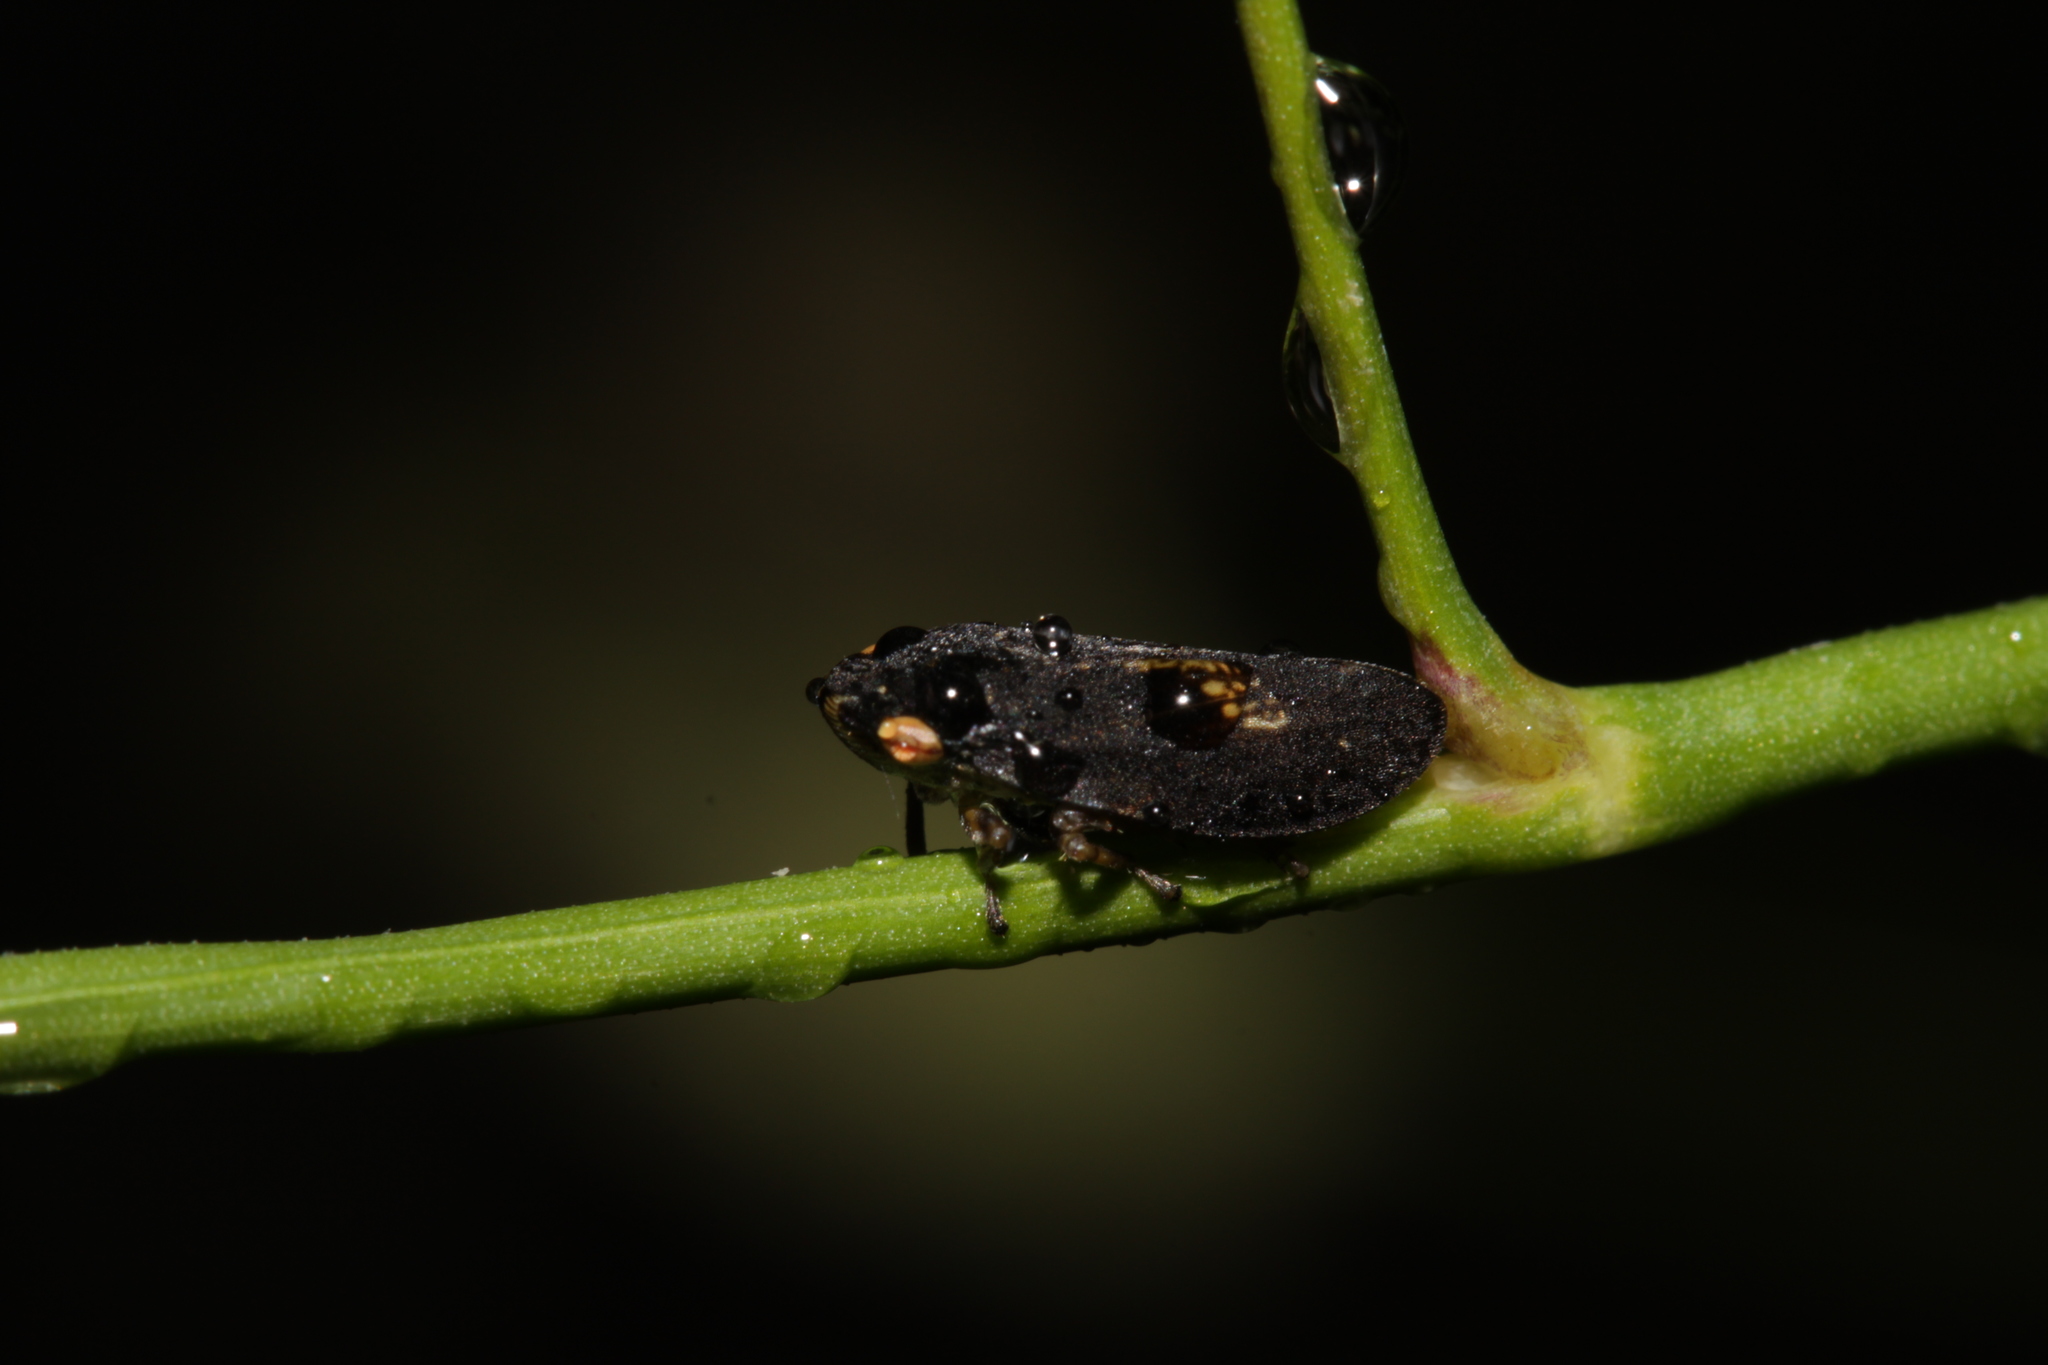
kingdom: Animalia
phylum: Arthropoda
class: Insecta
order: Hemiptera
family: Aphrophoridae
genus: Philaenus
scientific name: Philaenus spumarius
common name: Meadow spittlebug
